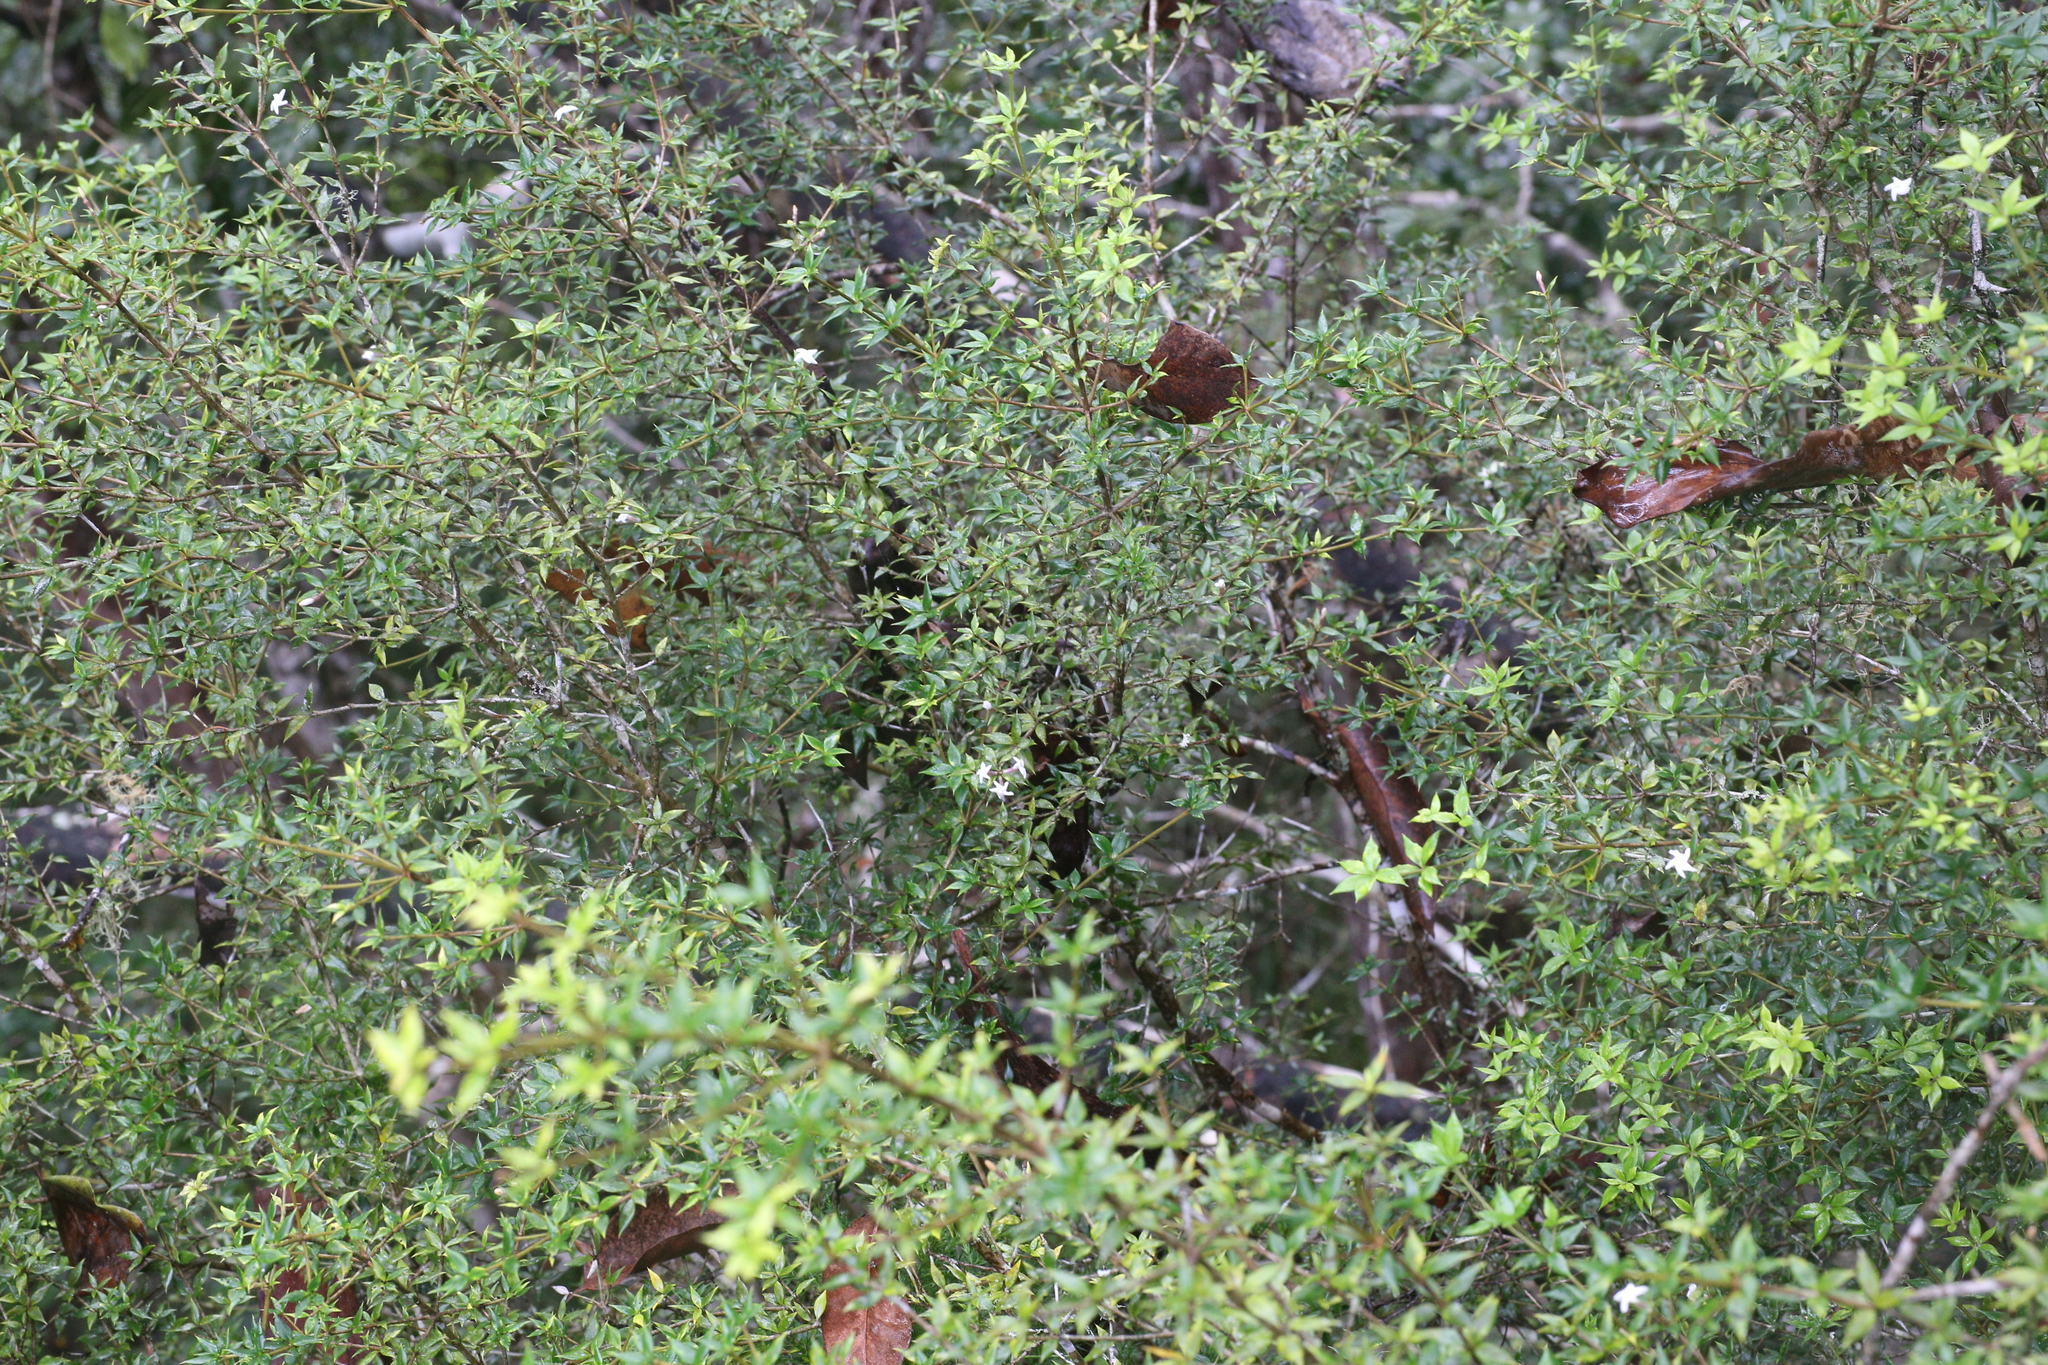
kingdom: Plantae
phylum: Tracheophyta
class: Magnoliopsida
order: Gentianales
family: Apocynaceae
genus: Alyxia
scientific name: Alyxia ruscifolia
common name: Chainfruit
